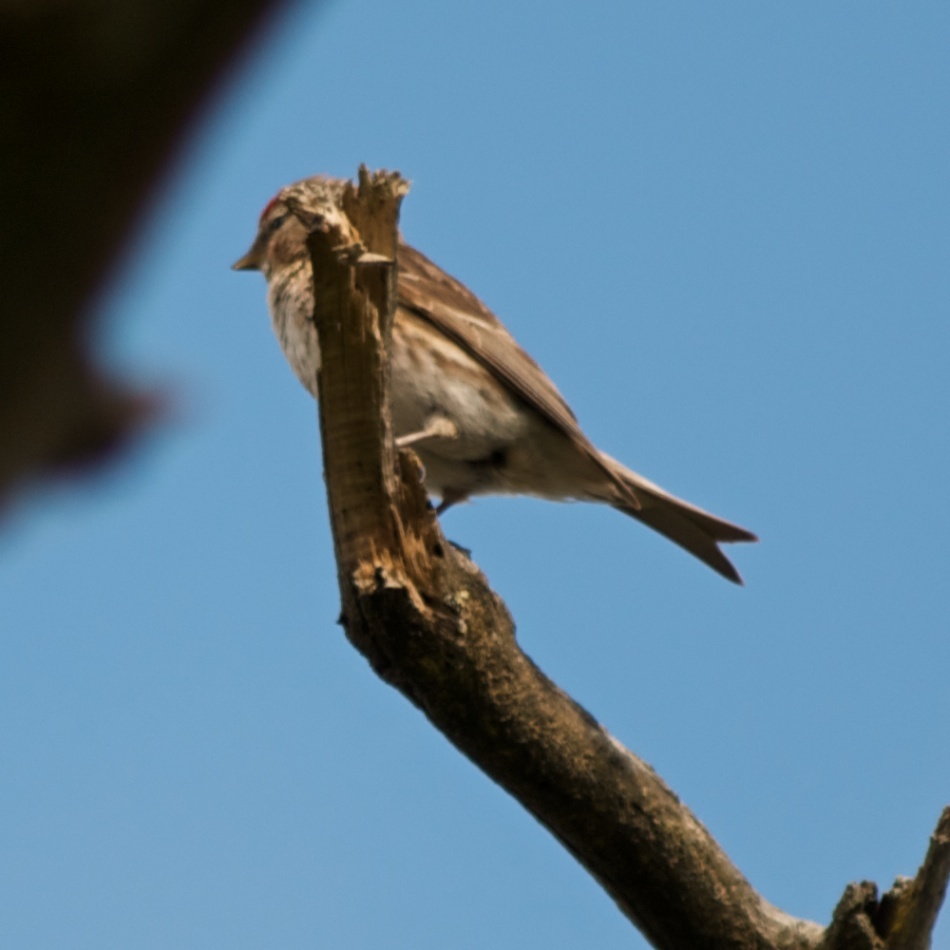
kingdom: Animalia
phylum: Chordata
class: Aves
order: Passeriformes
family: Fringillidae
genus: Acanthis
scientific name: Acanthis flammea
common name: Common redpoll
